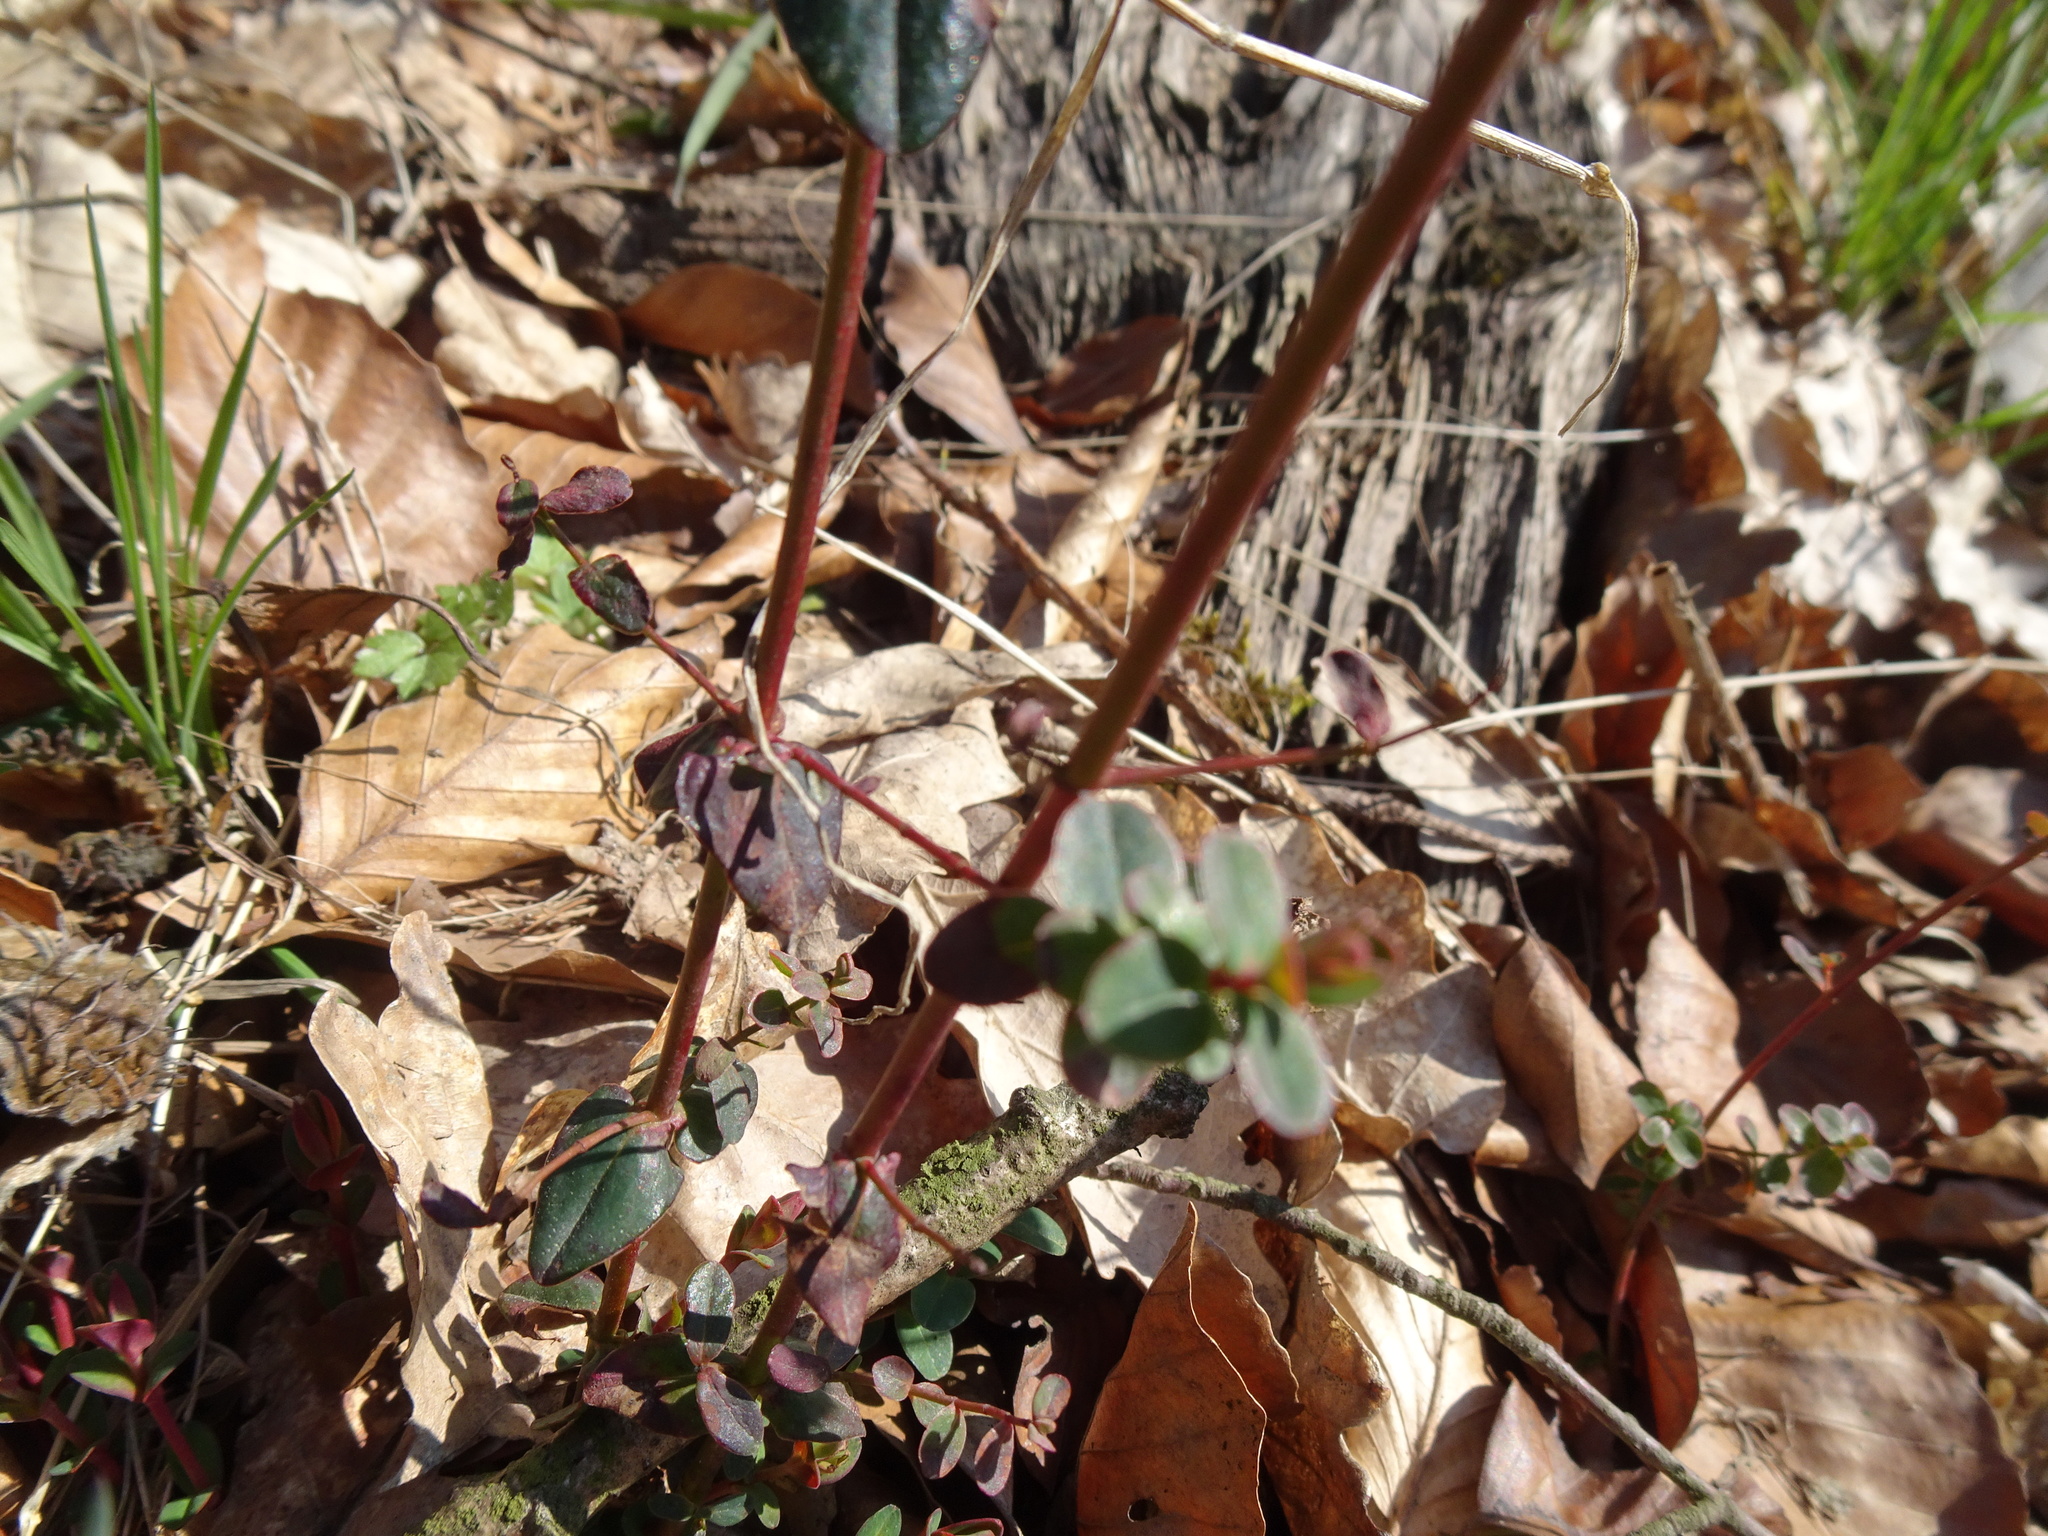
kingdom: Plantae
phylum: Tracheophyta
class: Magnoliopsida
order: Malpighiales
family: Hypericaceae
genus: Hypericum
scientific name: Hypericum pulchrum
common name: Slender st. john's-wort
